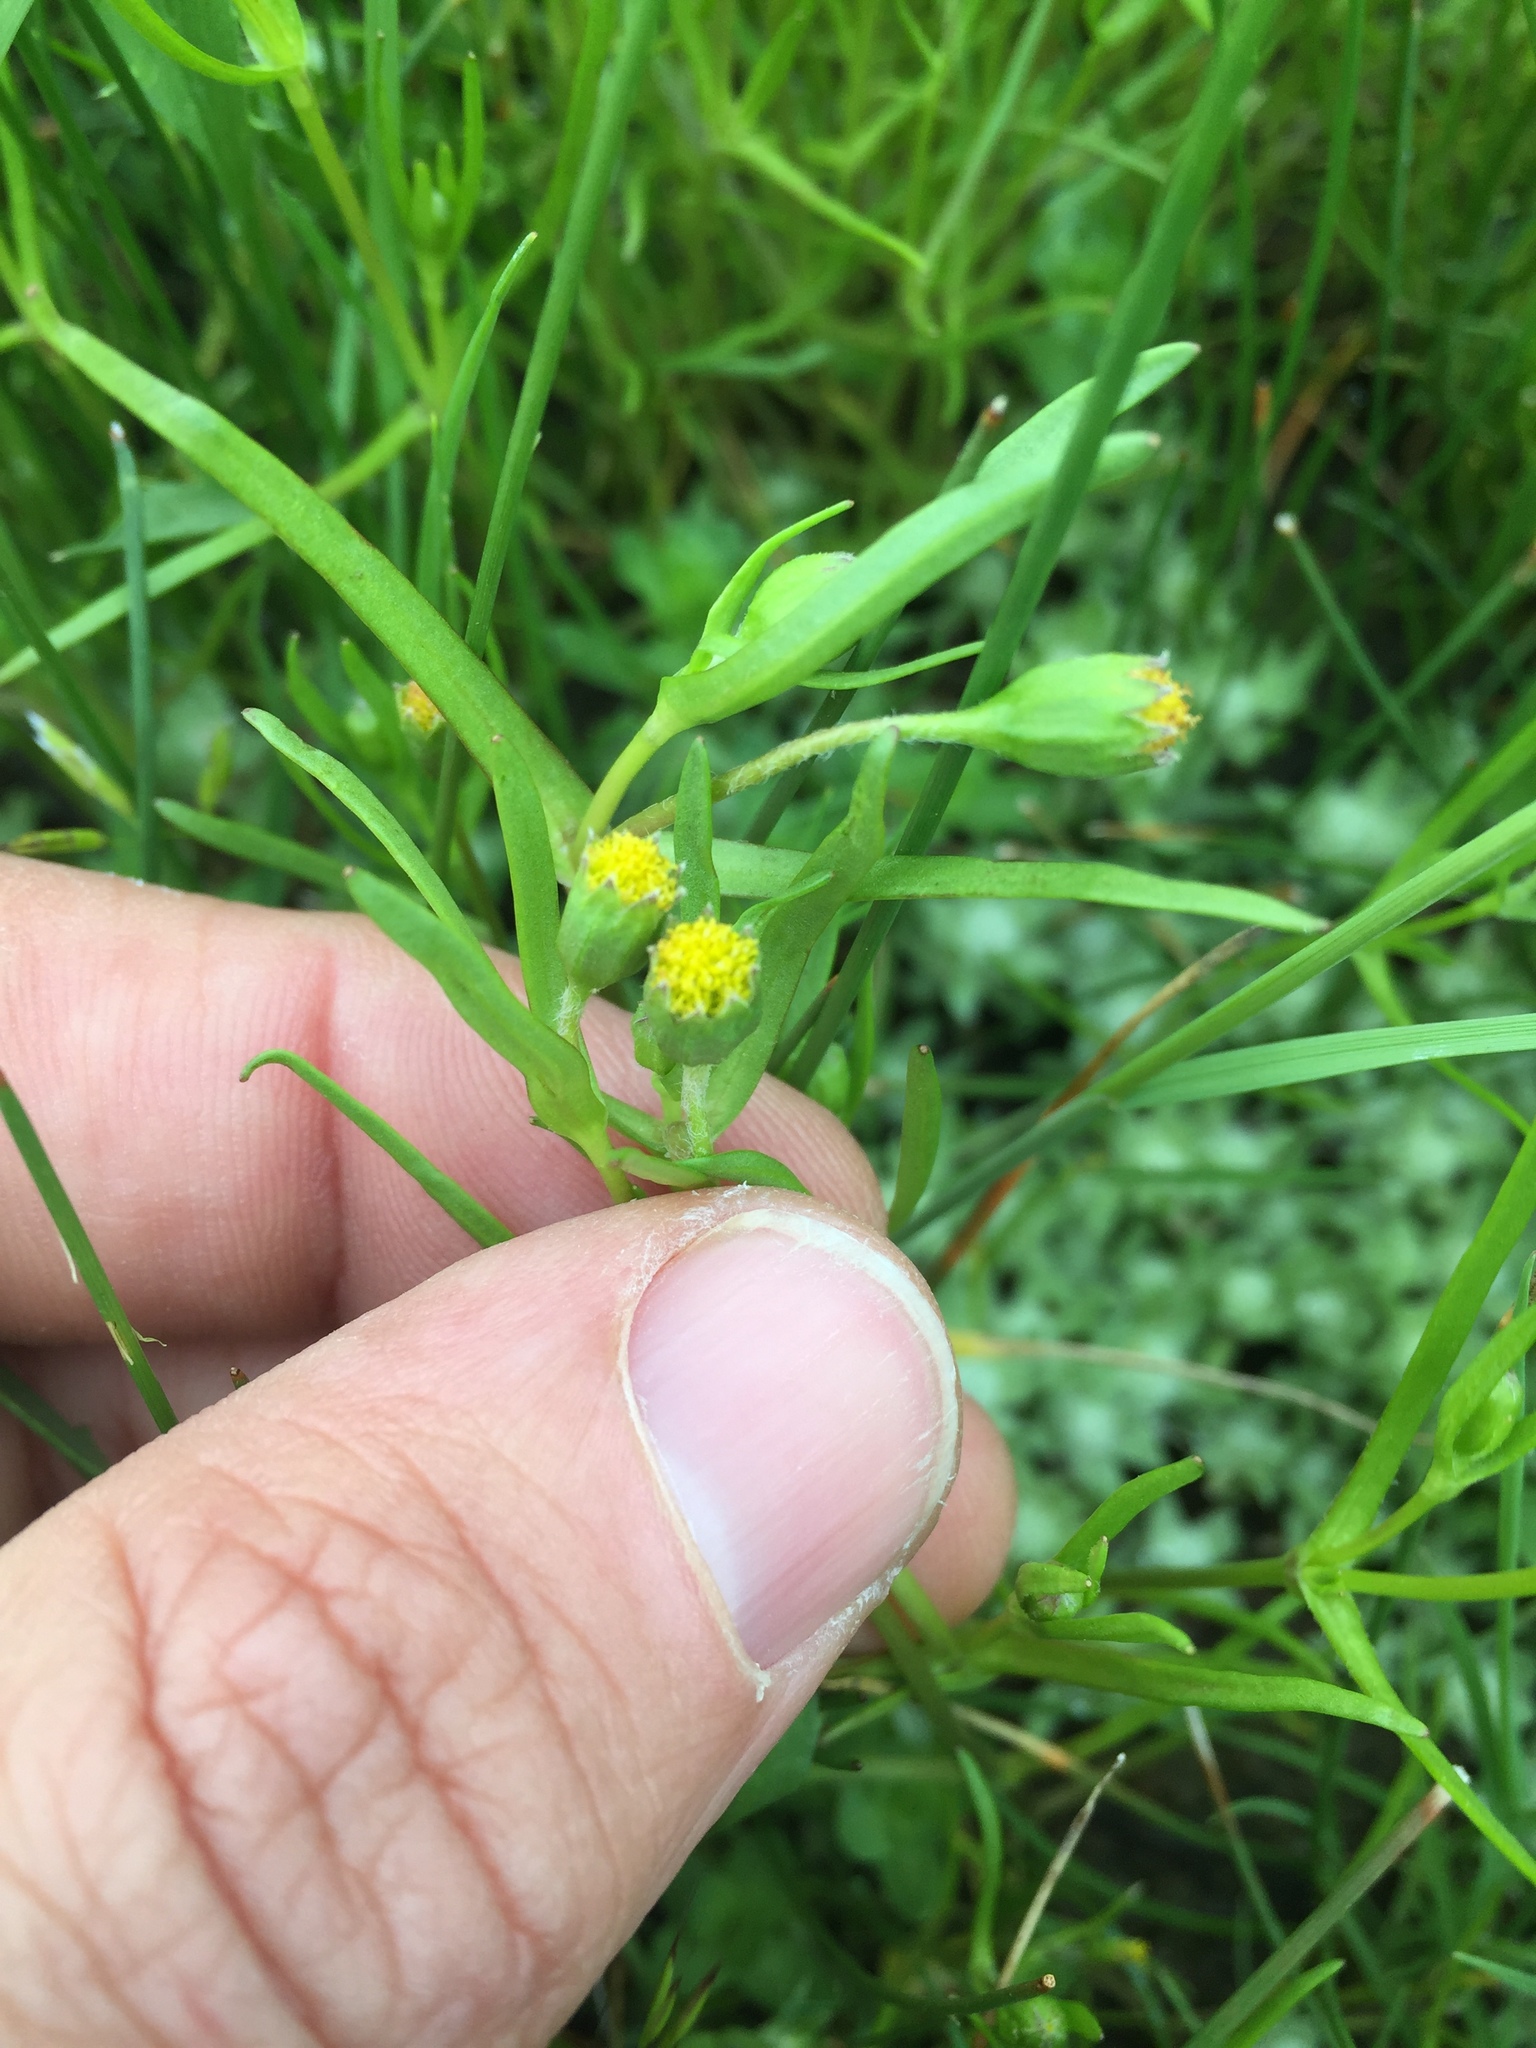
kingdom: Plantae
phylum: Tracheophyta
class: Magnoliopsida
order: Asterales
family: Asteraceae
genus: Lasthenia
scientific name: Lasthenia glaberrima
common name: Smooth goldfields
